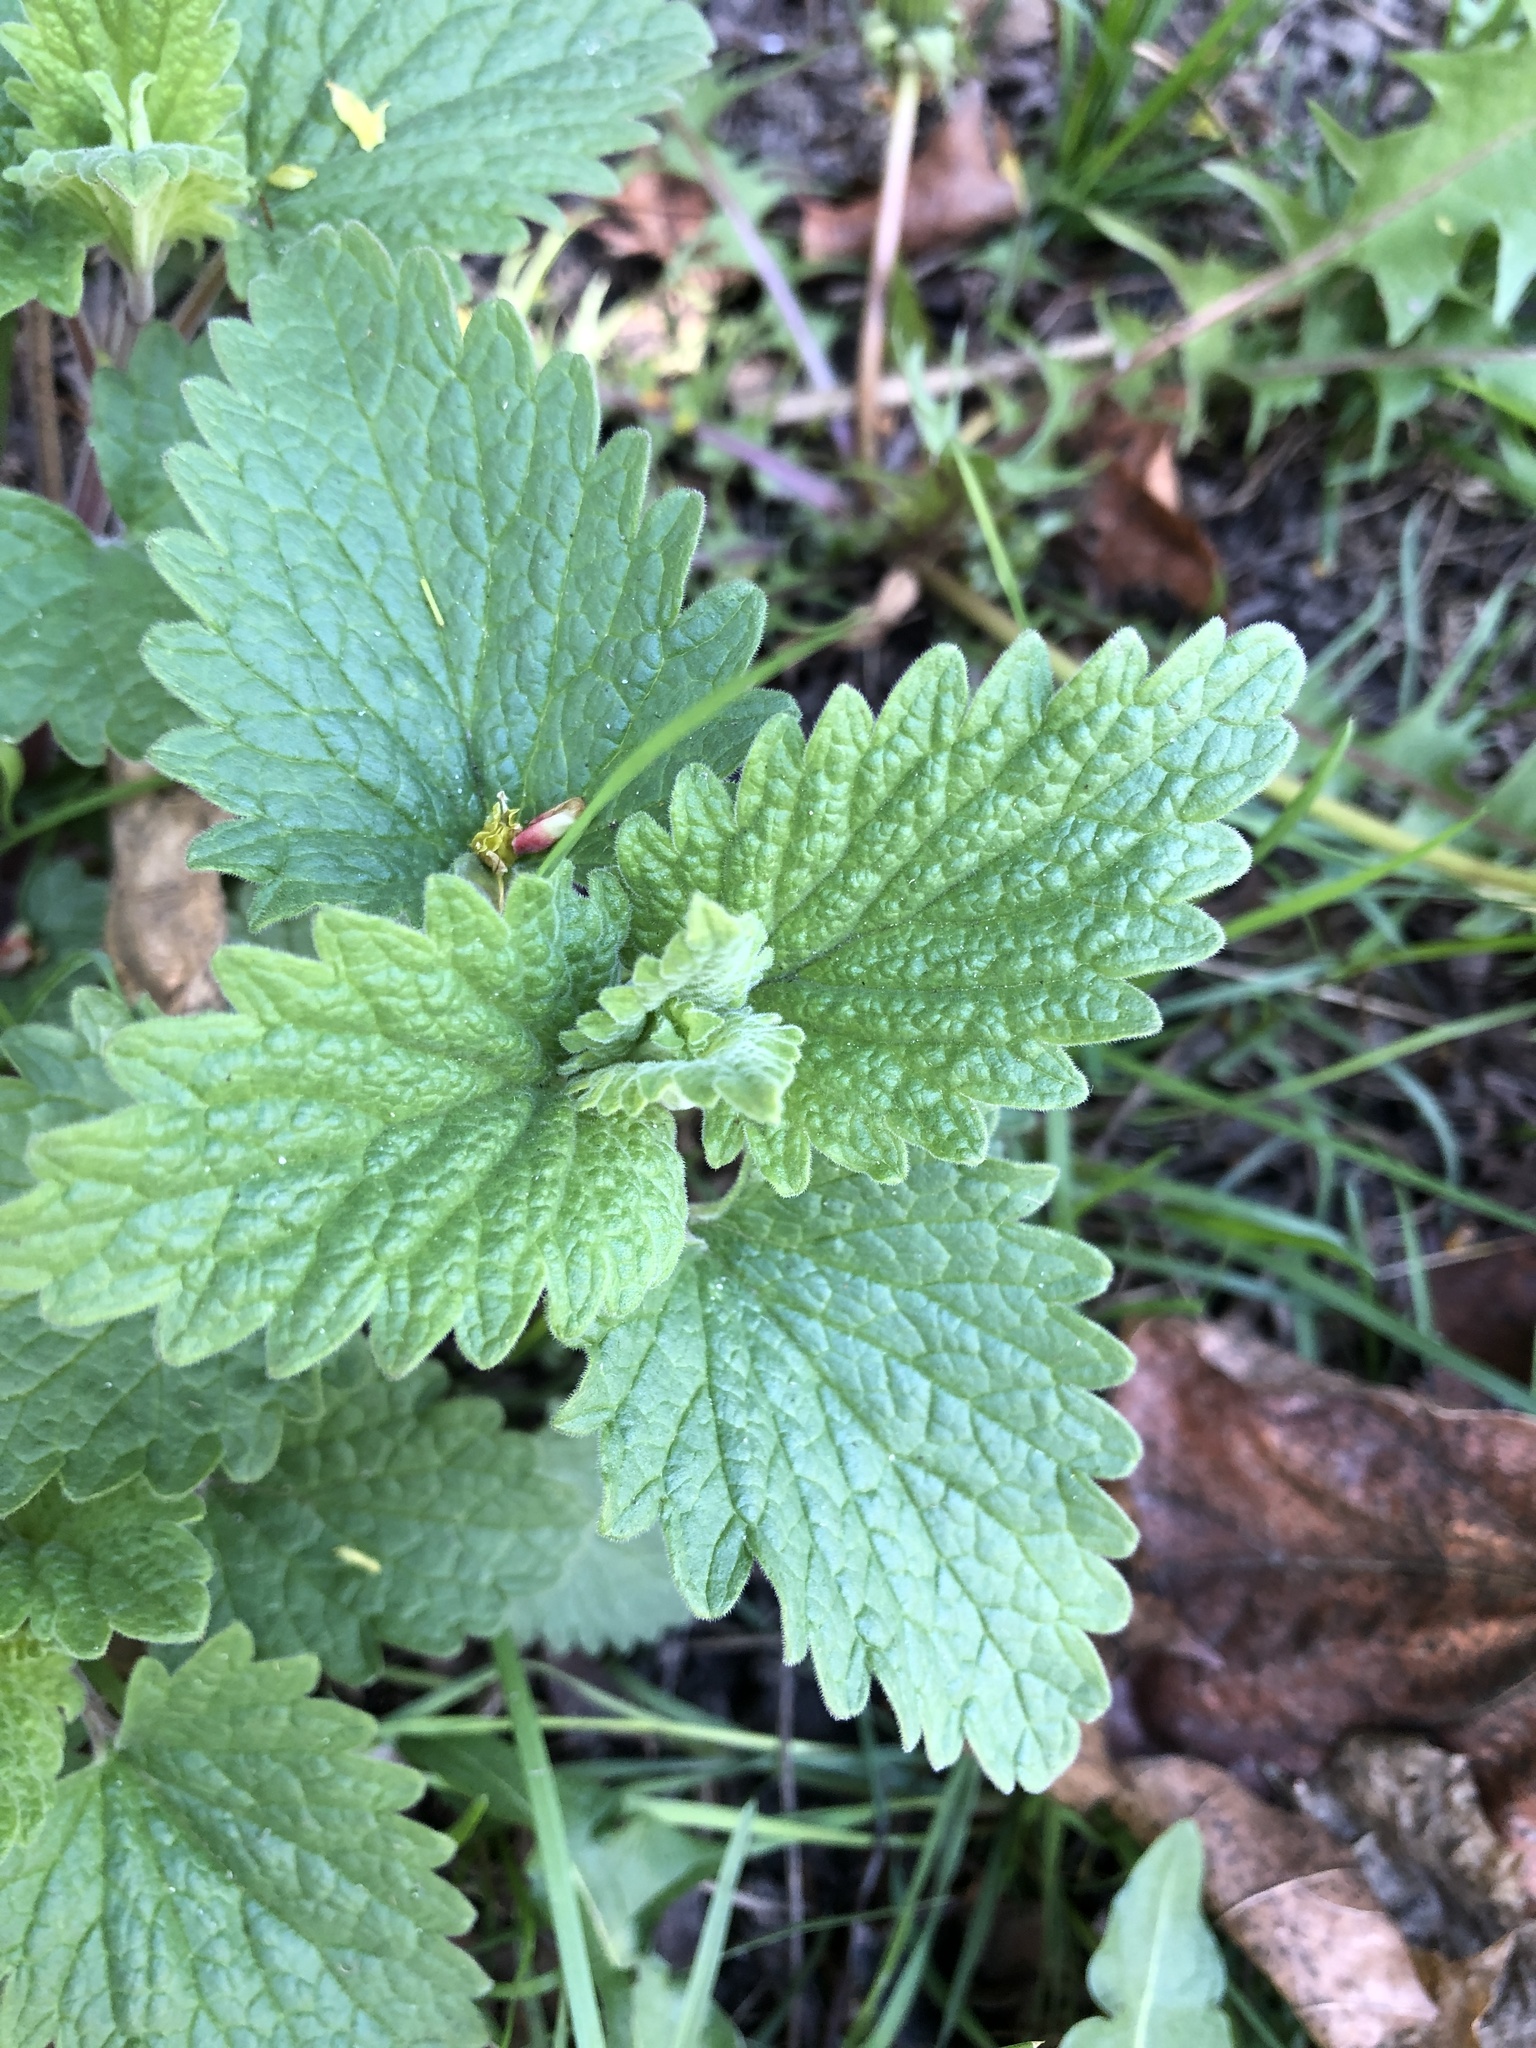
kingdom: Plantae
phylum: Tracheophyta
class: Magnoliopsida
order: Lamiales
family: Lamiaceae
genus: Nepeta
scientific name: Nepeta cataria
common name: Catnip
